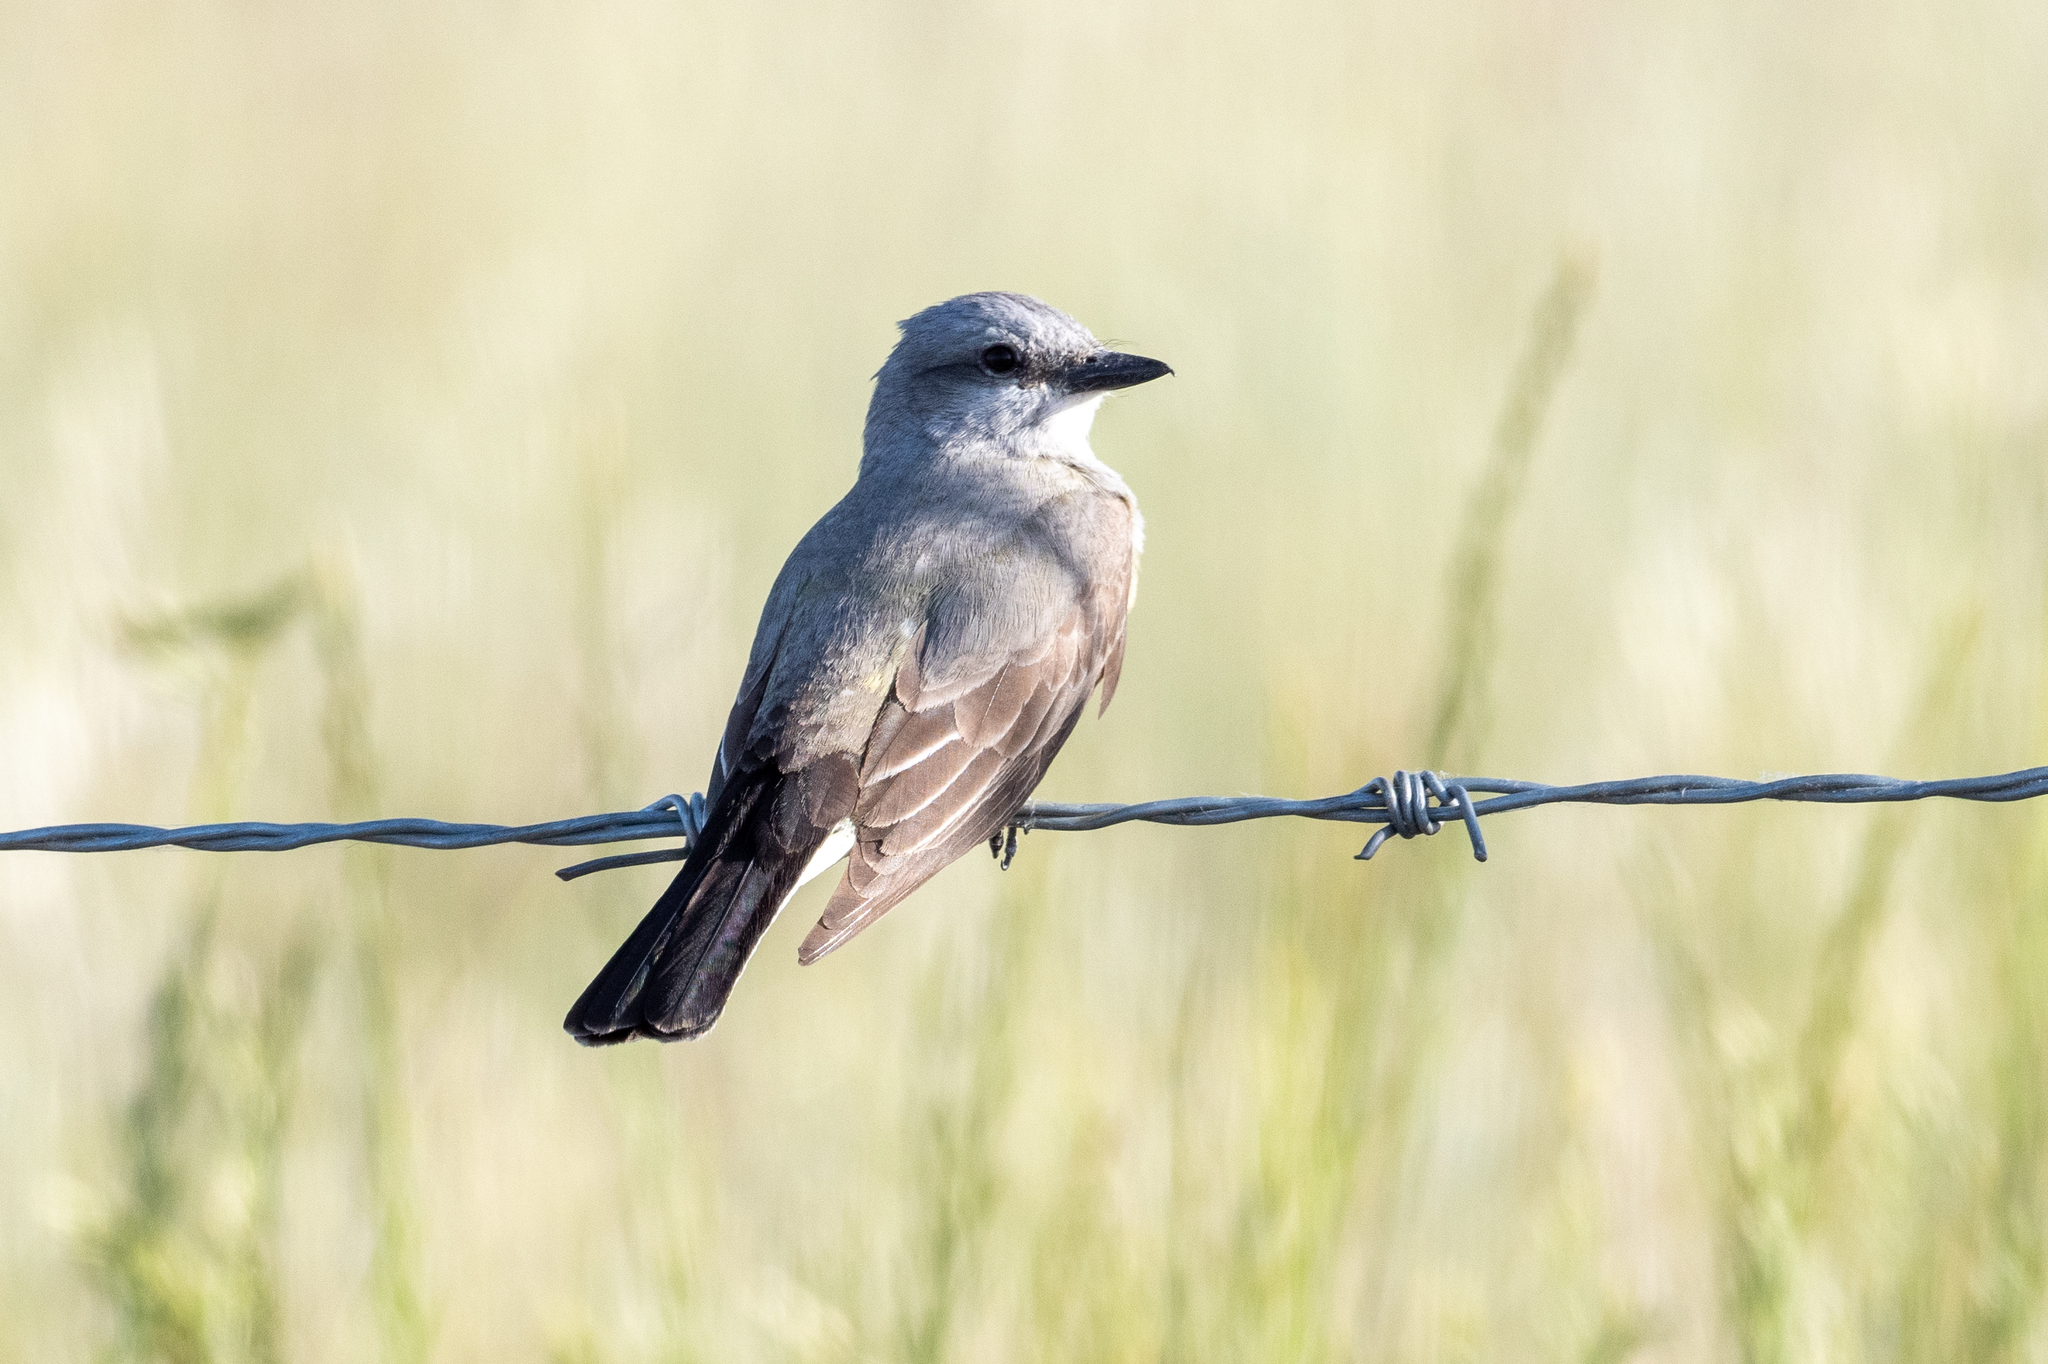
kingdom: Animalia
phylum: Chordata
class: Aves
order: Passeriformes
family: Tyrannidae
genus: Tyrannus
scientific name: Tyrannus verticalis
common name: Western kingbird
